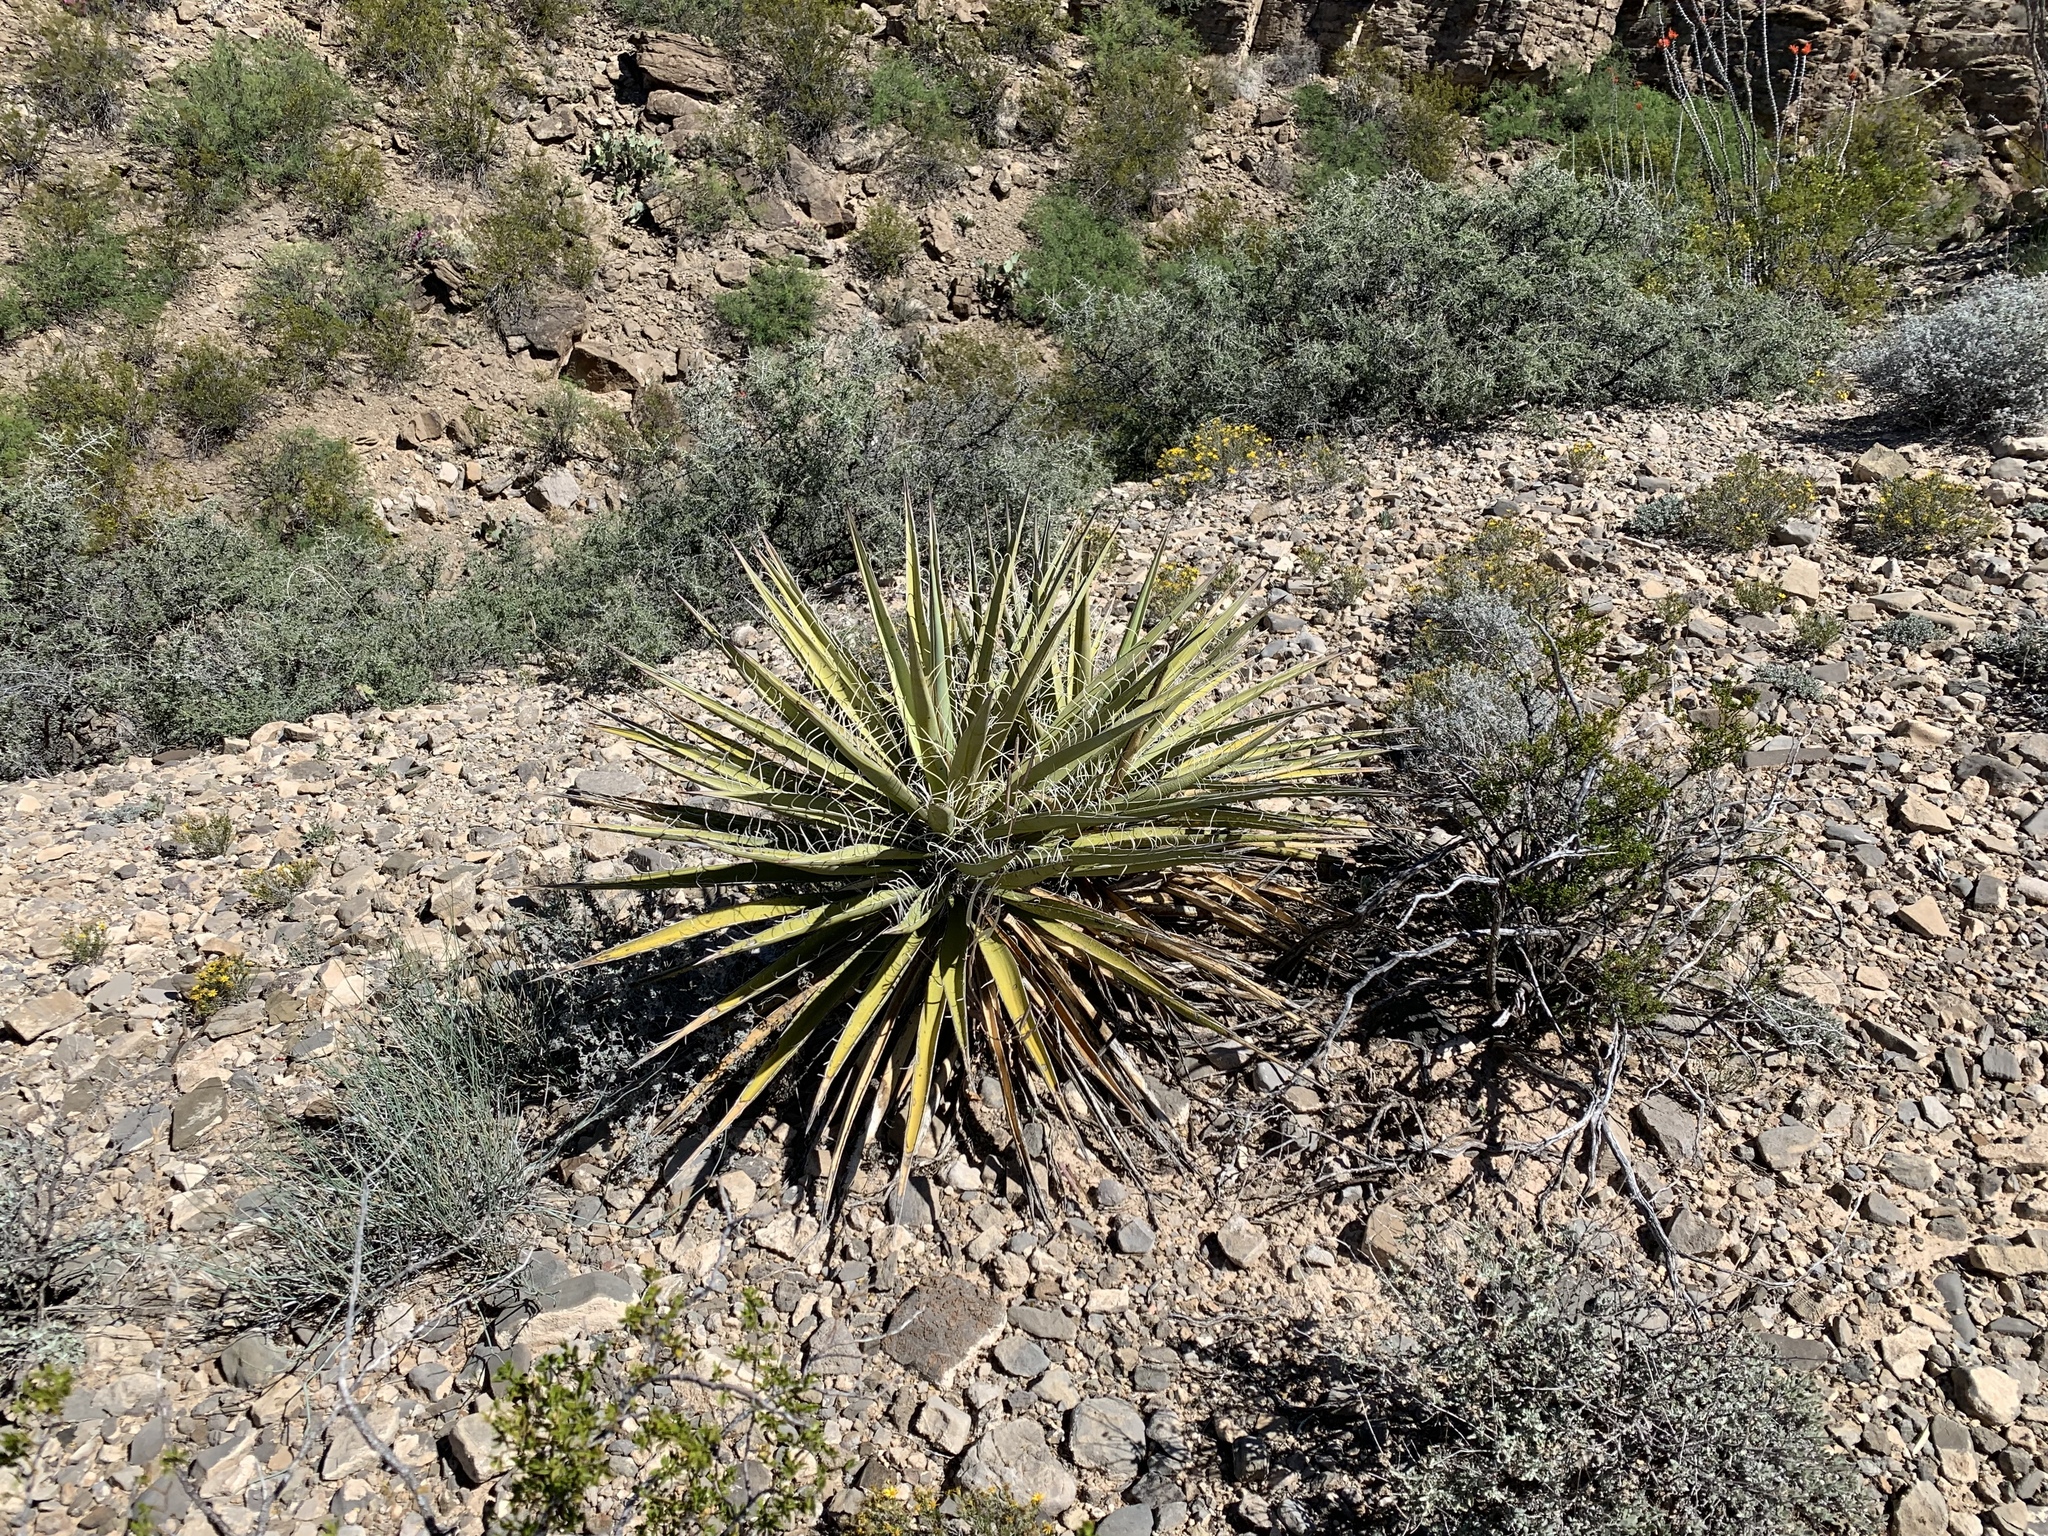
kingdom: Plantae
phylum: Tracheophyta
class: Liliopsida
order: Asparagales
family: Asparagaceae
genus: Yucca
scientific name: Yucca baccata
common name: Banana yucca
